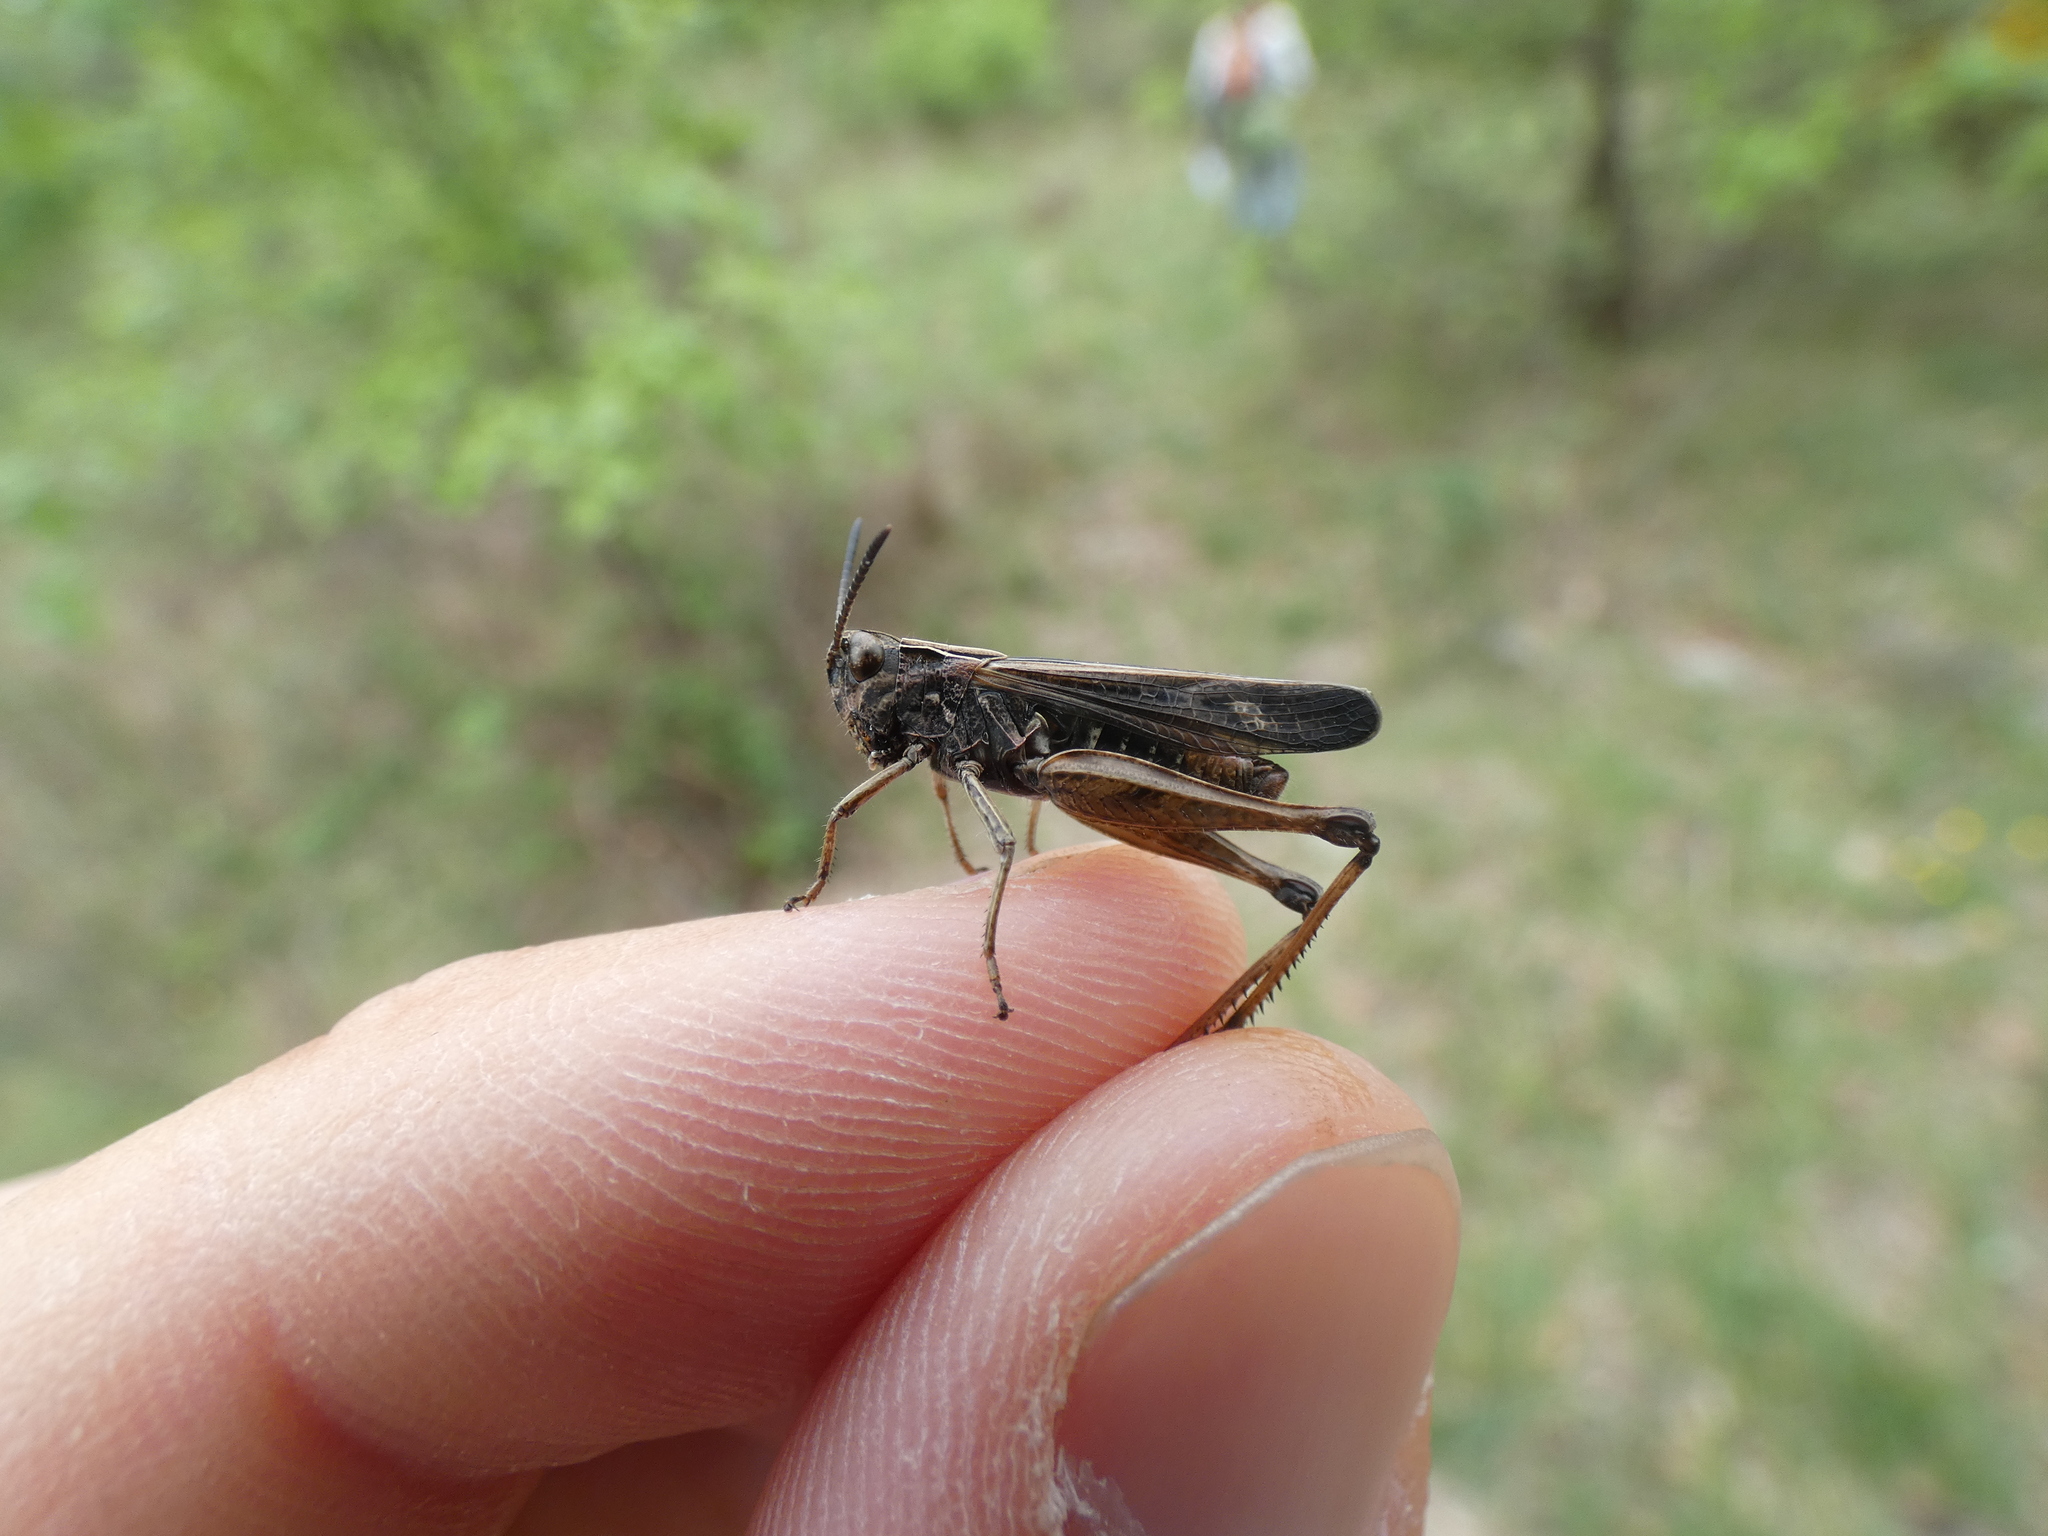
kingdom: Animalia
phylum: Arthropoda
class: Insecta
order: Orthoptera
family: Acrididae
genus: Omocestus
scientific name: Omocestus rufipes
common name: Woodland grasshopper
